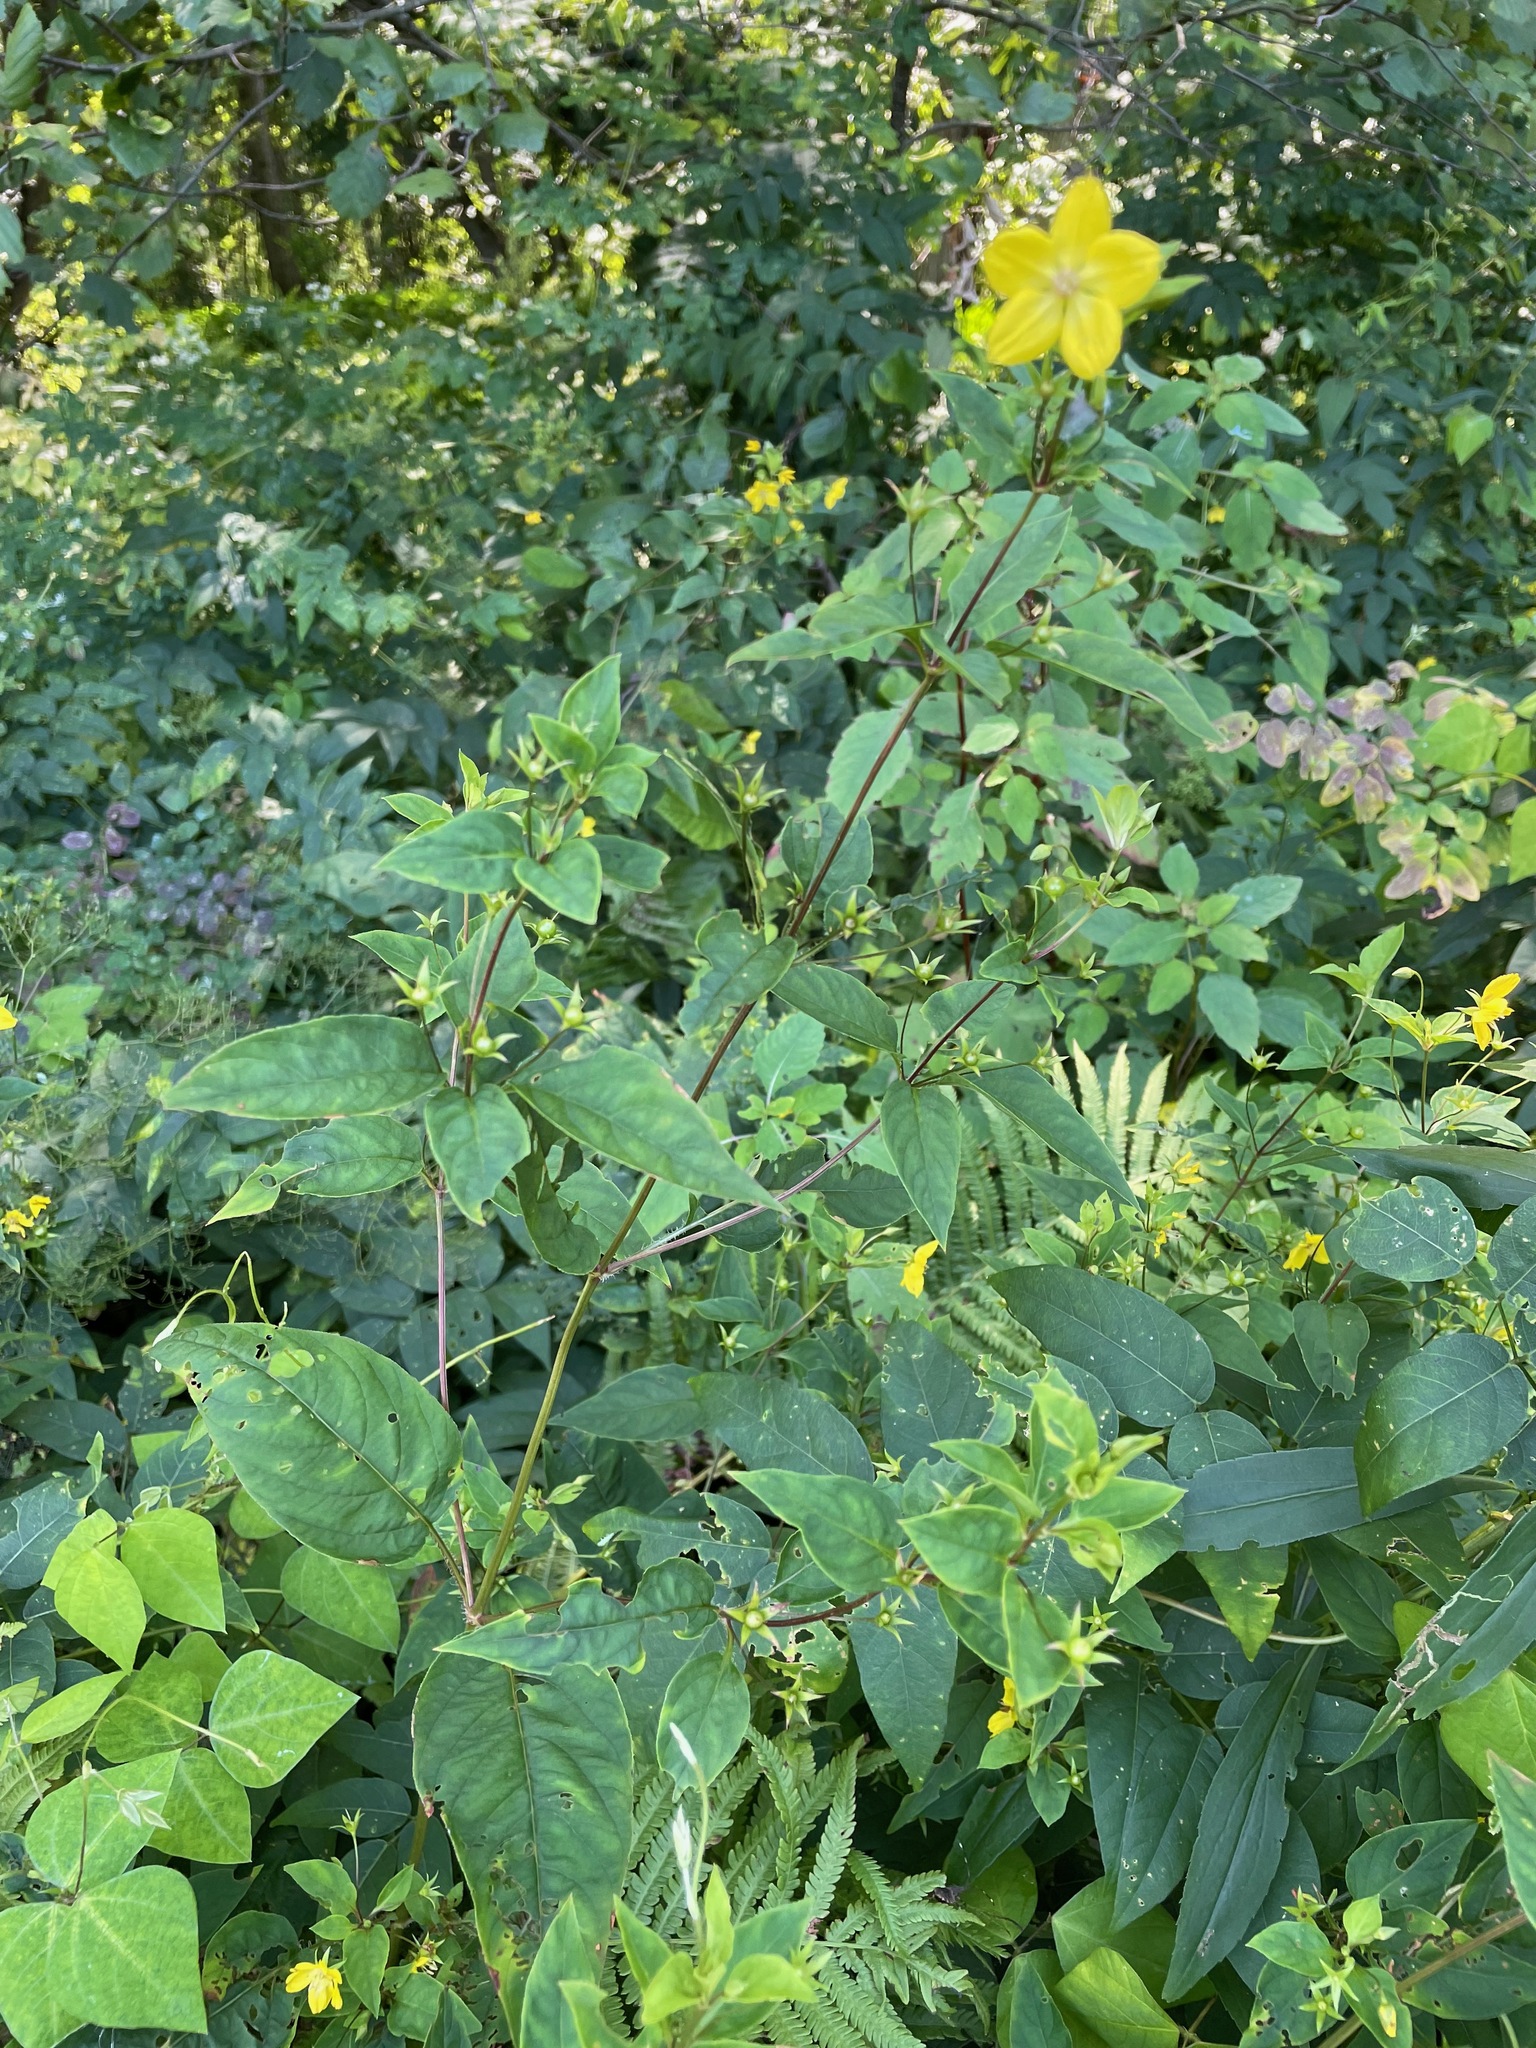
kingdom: Plantae
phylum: Tracheophyta
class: Magnoliopsida
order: Ericales
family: Primulaceae
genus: Lysimachia
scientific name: Lysimachia ciliata
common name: Fringed loosestrife
